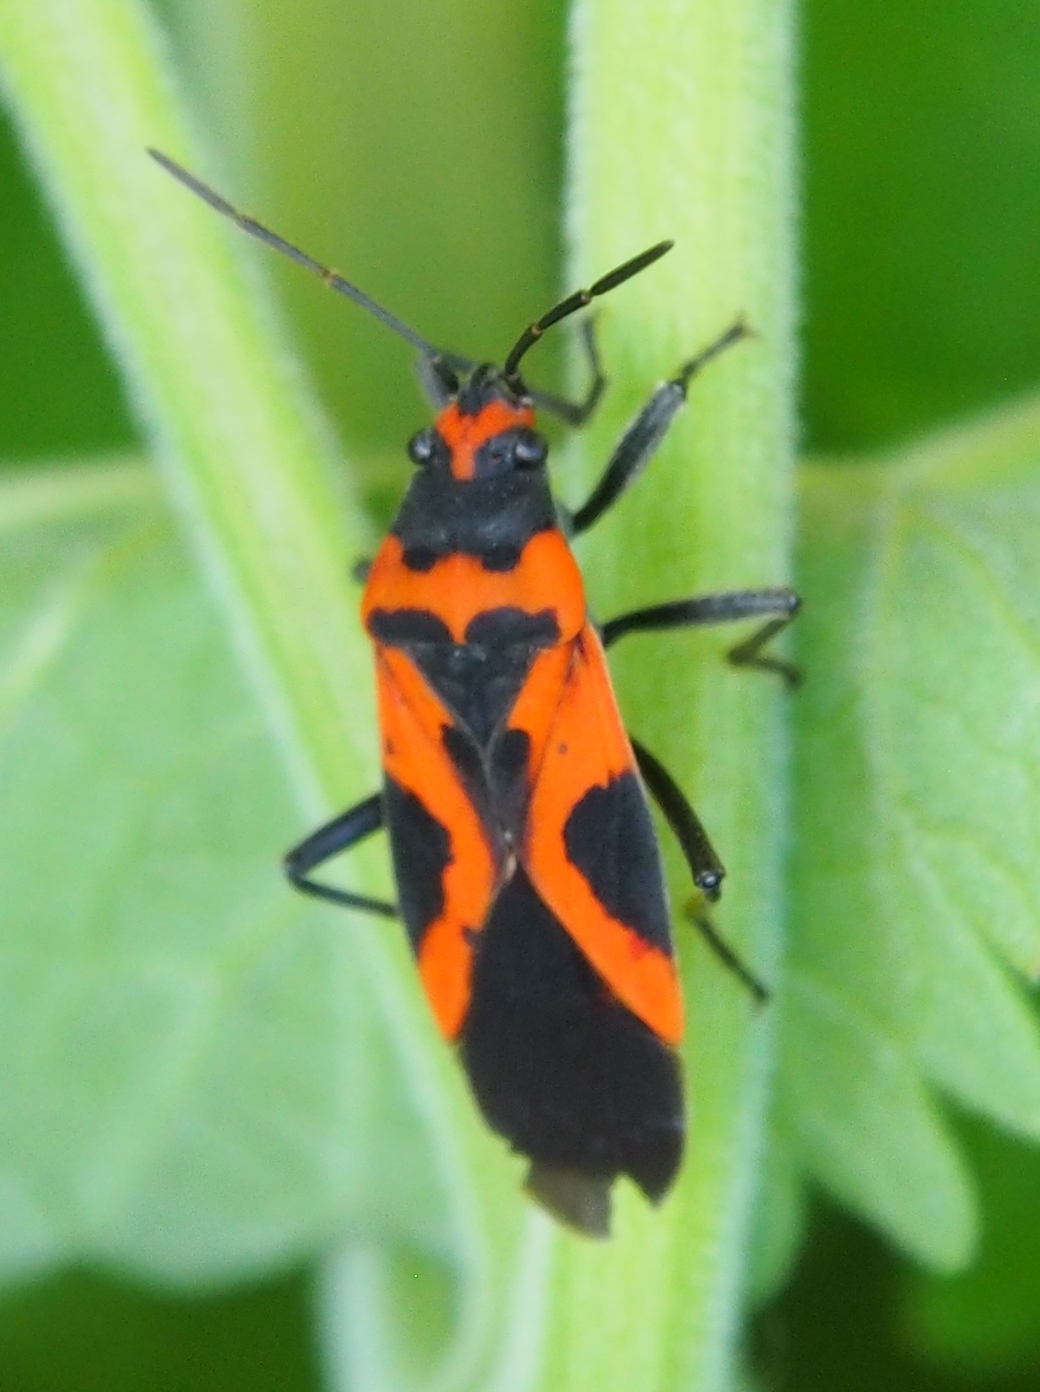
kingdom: Animalia
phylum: Arthropoda
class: Insecta
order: Hemiptera
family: Lygaeidae
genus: Lygaeus
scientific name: Lygaeus turcicus
